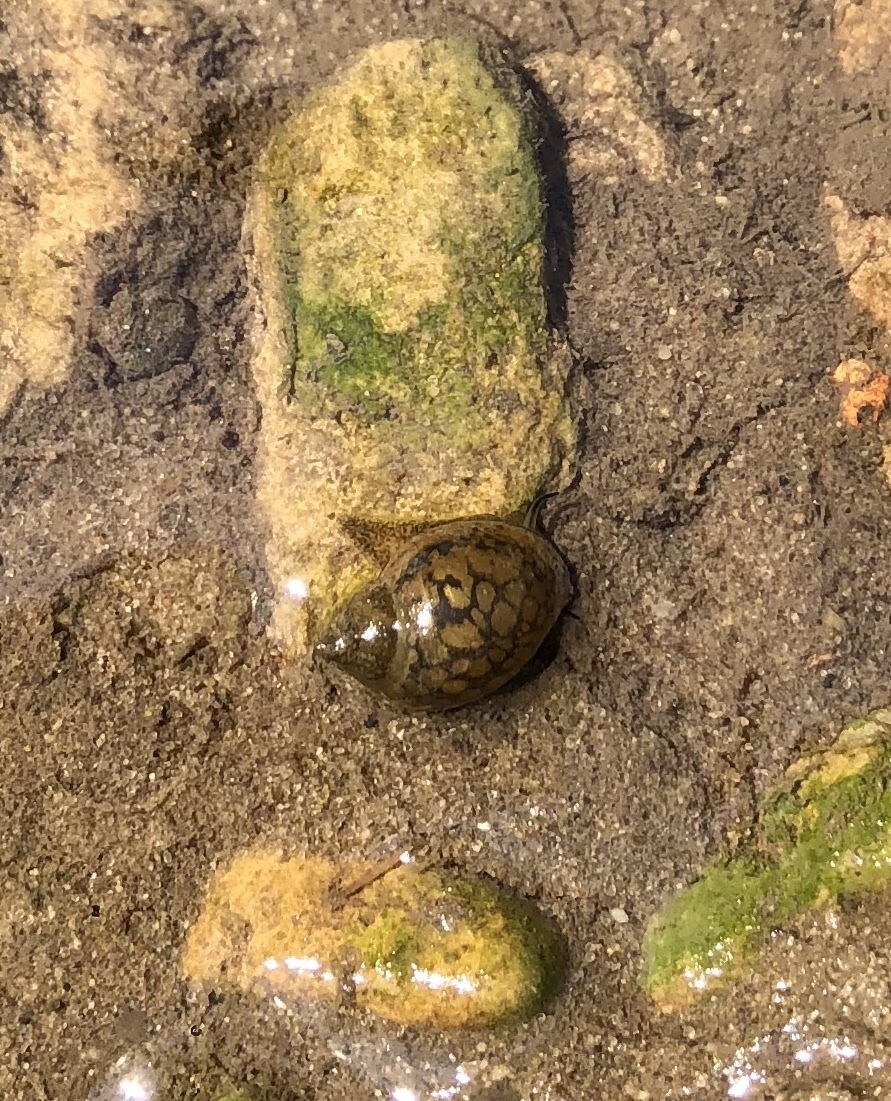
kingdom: Animalia
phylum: Mollusca
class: Gastropoda
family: Physidae
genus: Physella
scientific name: Physella acuta
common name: European physa
